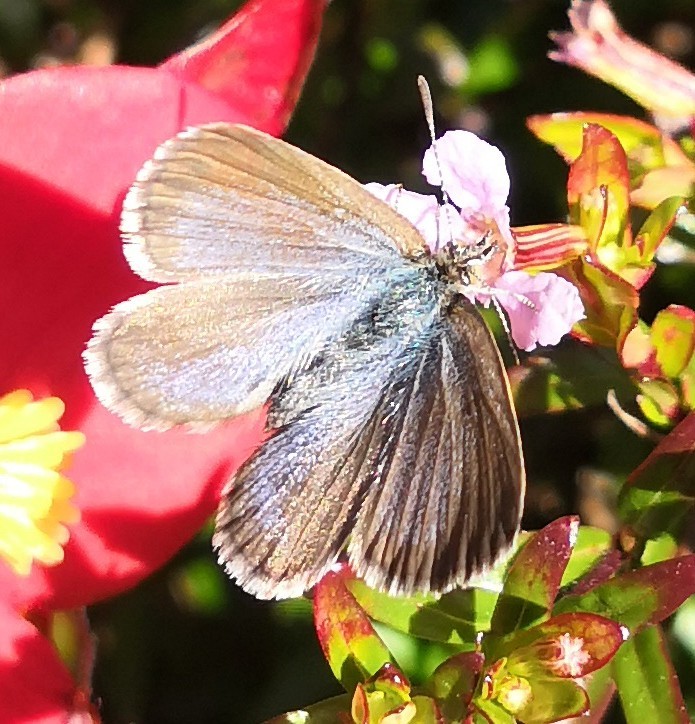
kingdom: Animalia
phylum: Arthropoda
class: Insecta
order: Lepidoptera
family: Lycaenidae
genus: Zizina
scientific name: Zizina labradus
